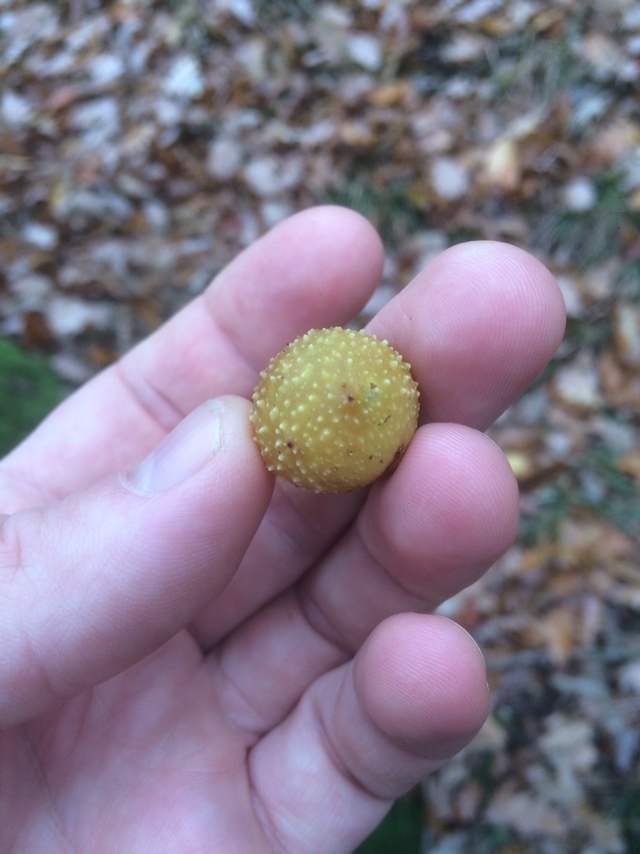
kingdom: Animalia
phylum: Arthropoda
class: Insecta
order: Hymenoptera
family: Cynipidae
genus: Cynips
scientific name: Cynips quercusfolii
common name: Cherry gall
